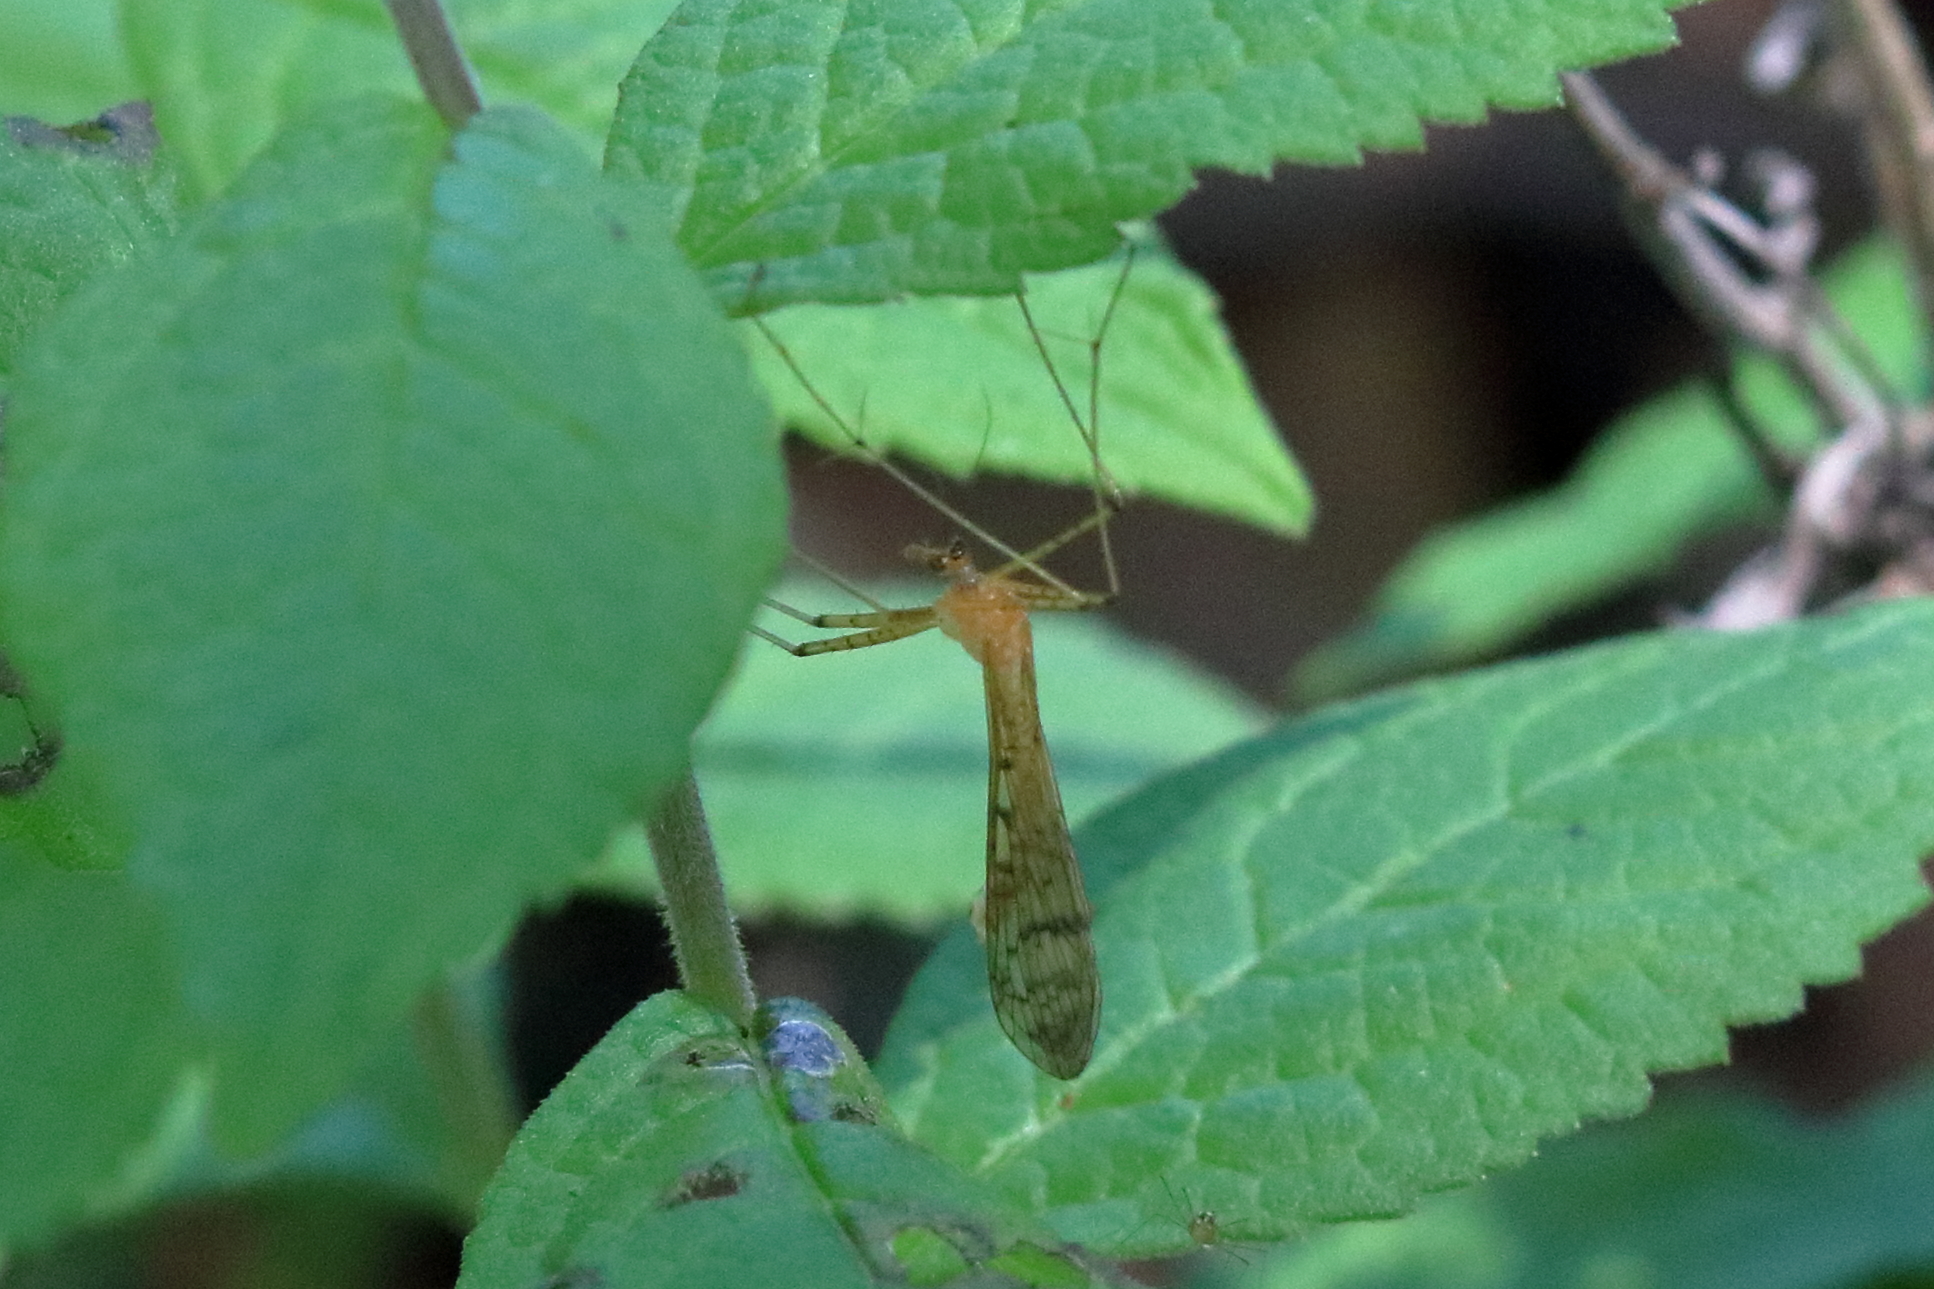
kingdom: Animalia
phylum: Arthropoda
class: Insecta
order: Mecoptera
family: Bittacidae
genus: Bittacus
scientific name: Bittacus punctiger
